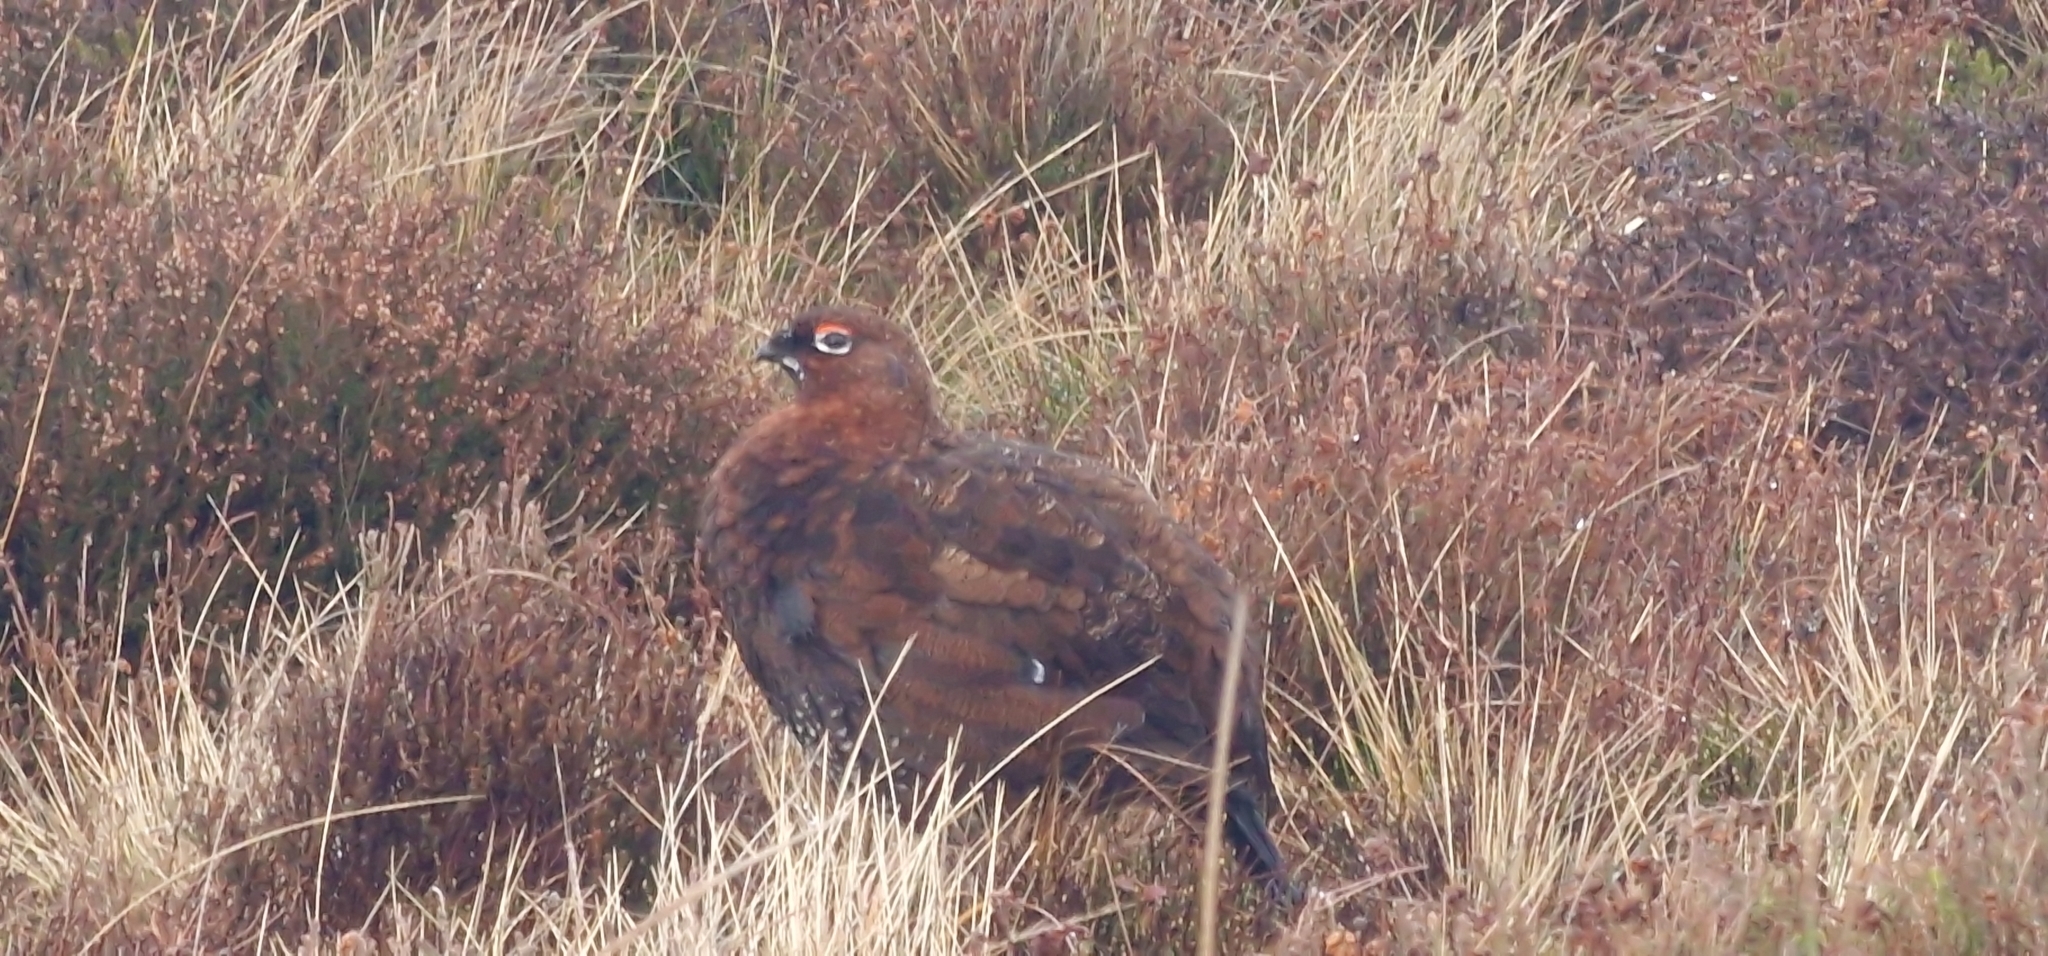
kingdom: Animalia
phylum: Chordata
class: Aves
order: Galliformes
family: Phasianidae
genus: Lagopus
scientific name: Lagopus lagopus
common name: Willow ptarmigan
